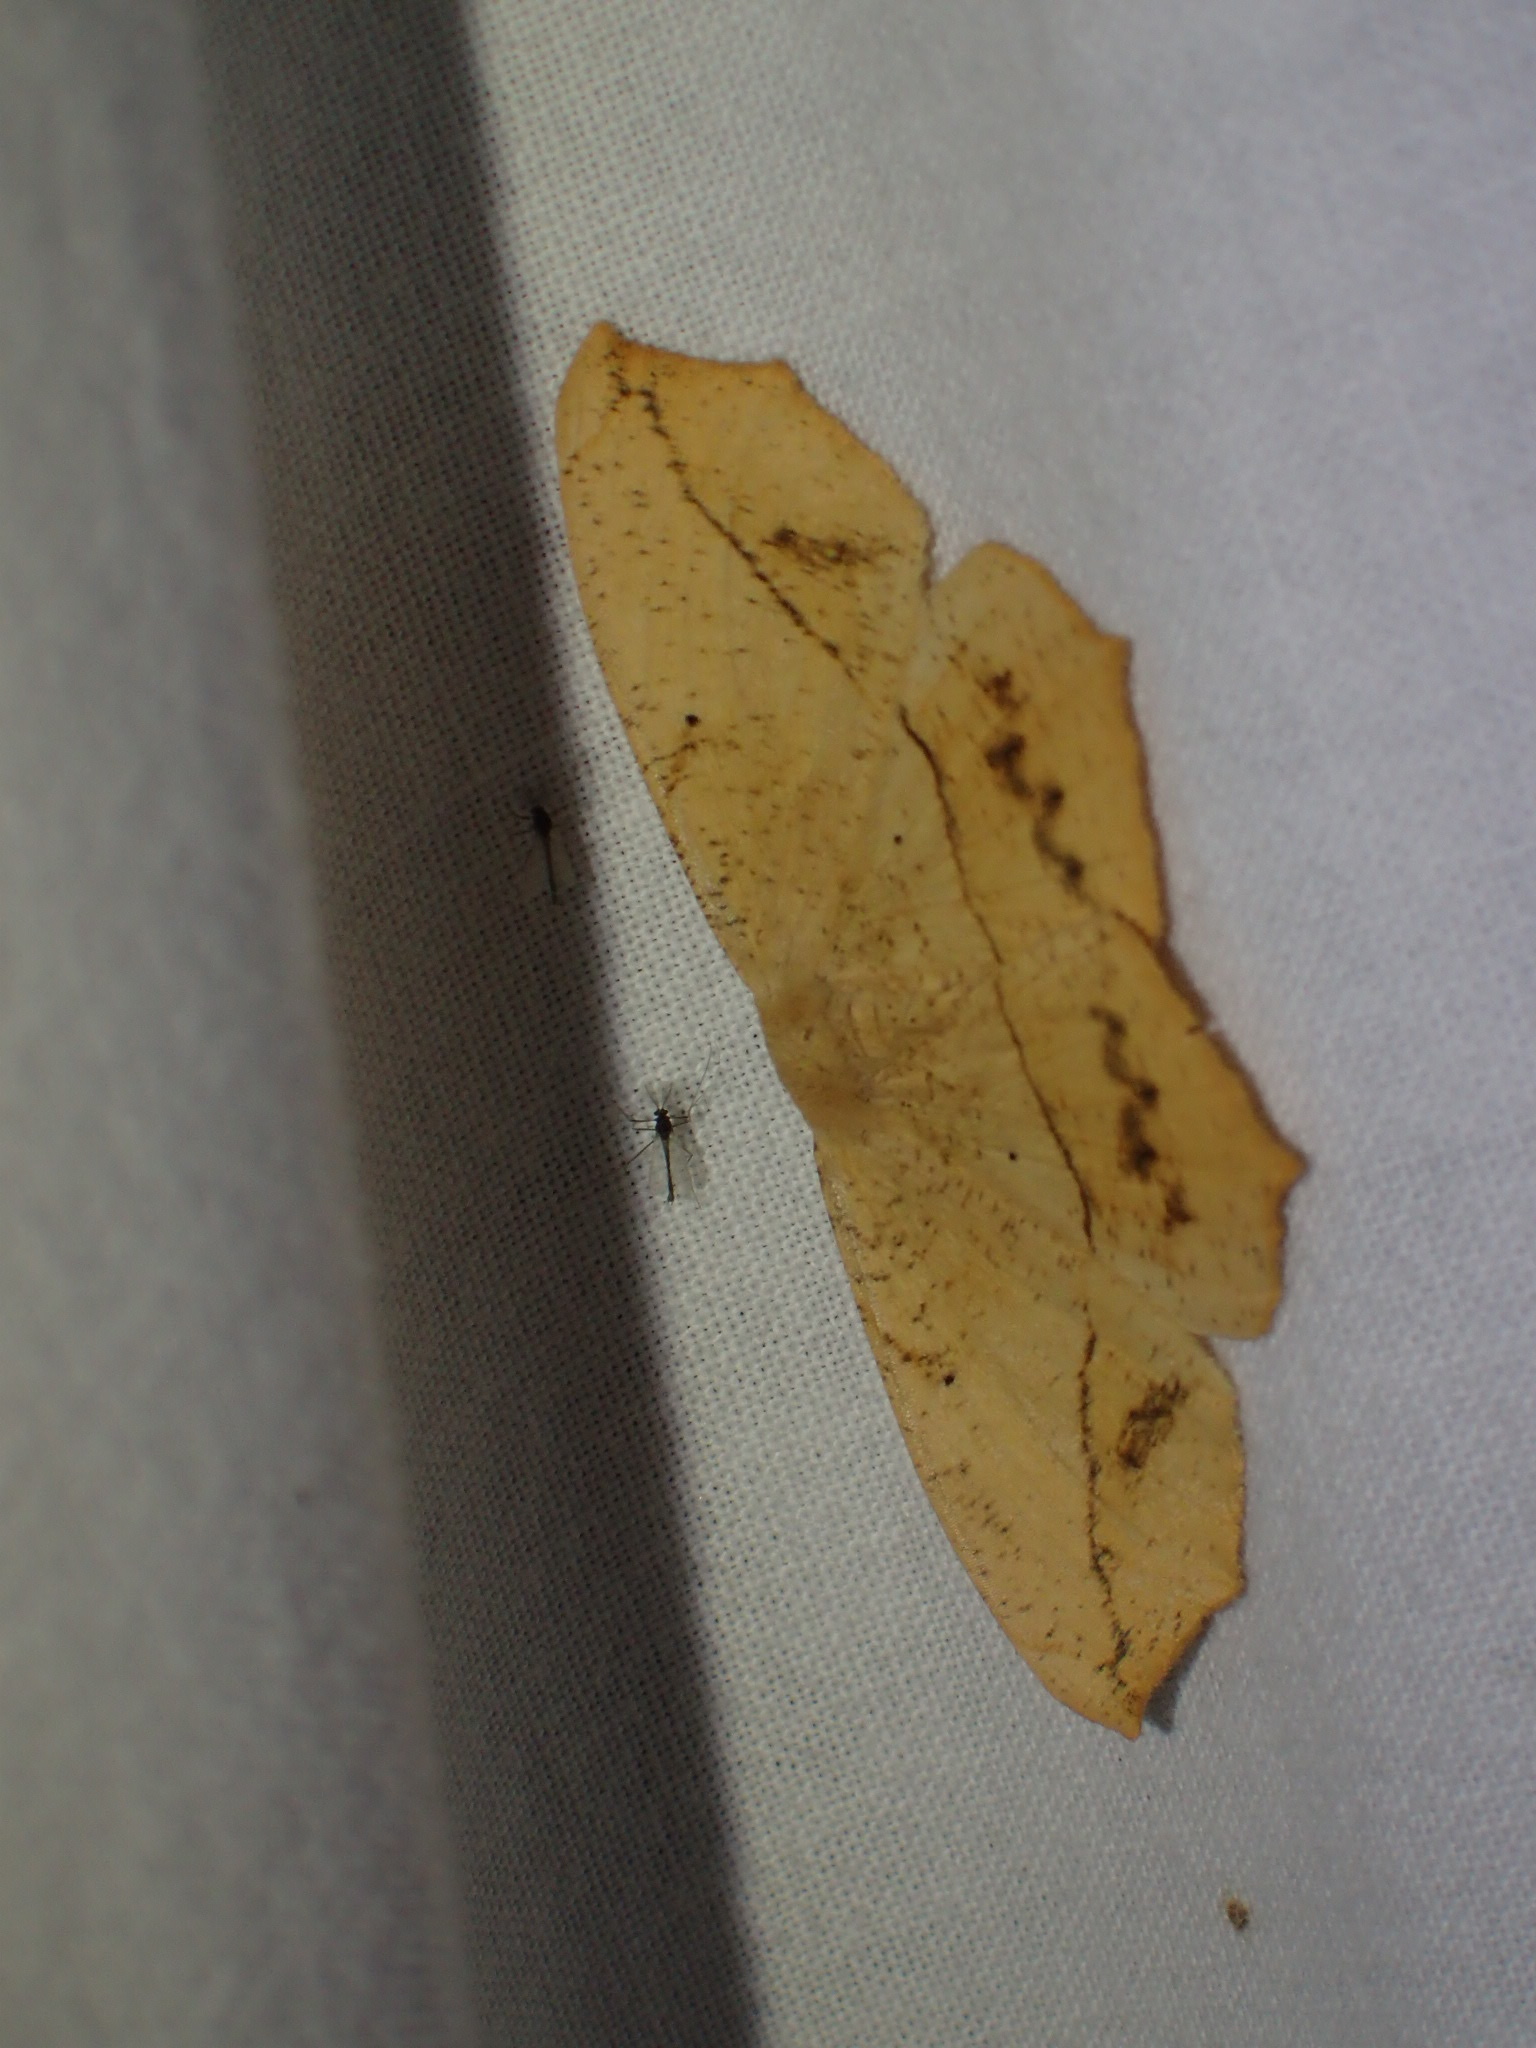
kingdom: Animalia
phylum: Arthropoda
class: Insecta
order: Lepidoptera
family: Geometridae
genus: Prochoerodes
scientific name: Prochoerodes lineola
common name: Large maple spanworm
